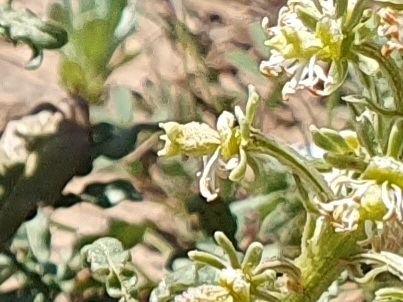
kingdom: Plantae
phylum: Tracheophyta
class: Magnoliopsida
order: Brassicales
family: Resedaceae
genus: Reseda
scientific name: Reseda duriaeana
